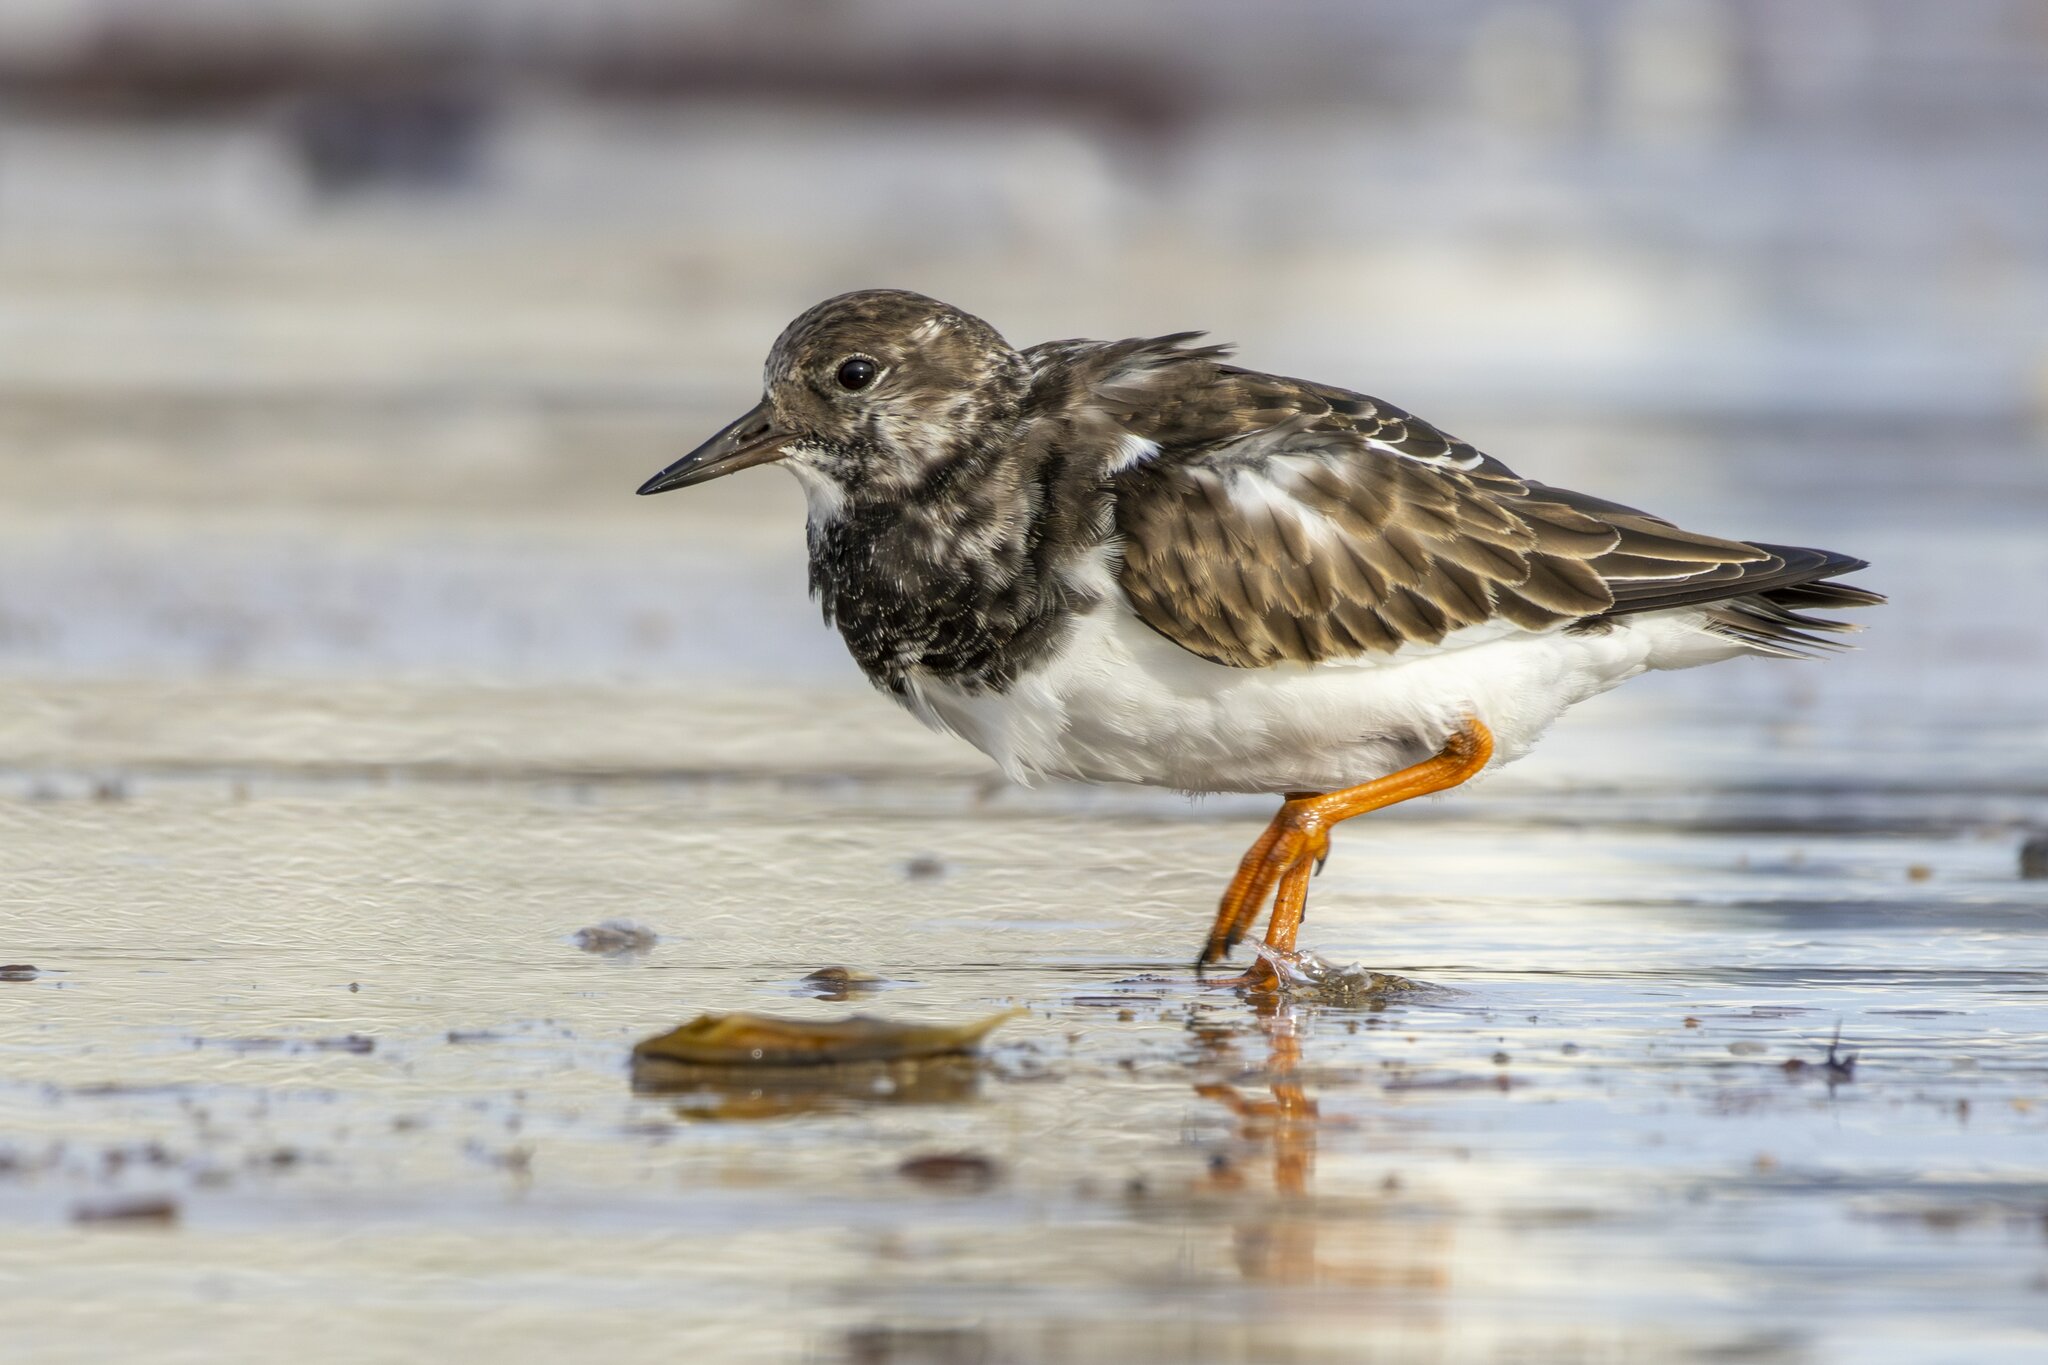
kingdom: Animalia
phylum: Chordata
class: Aves
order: Charadriiformes
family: Scolopacidae
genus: Arenaria
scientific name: Arenaria interpres
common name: Ruddy turnstone
